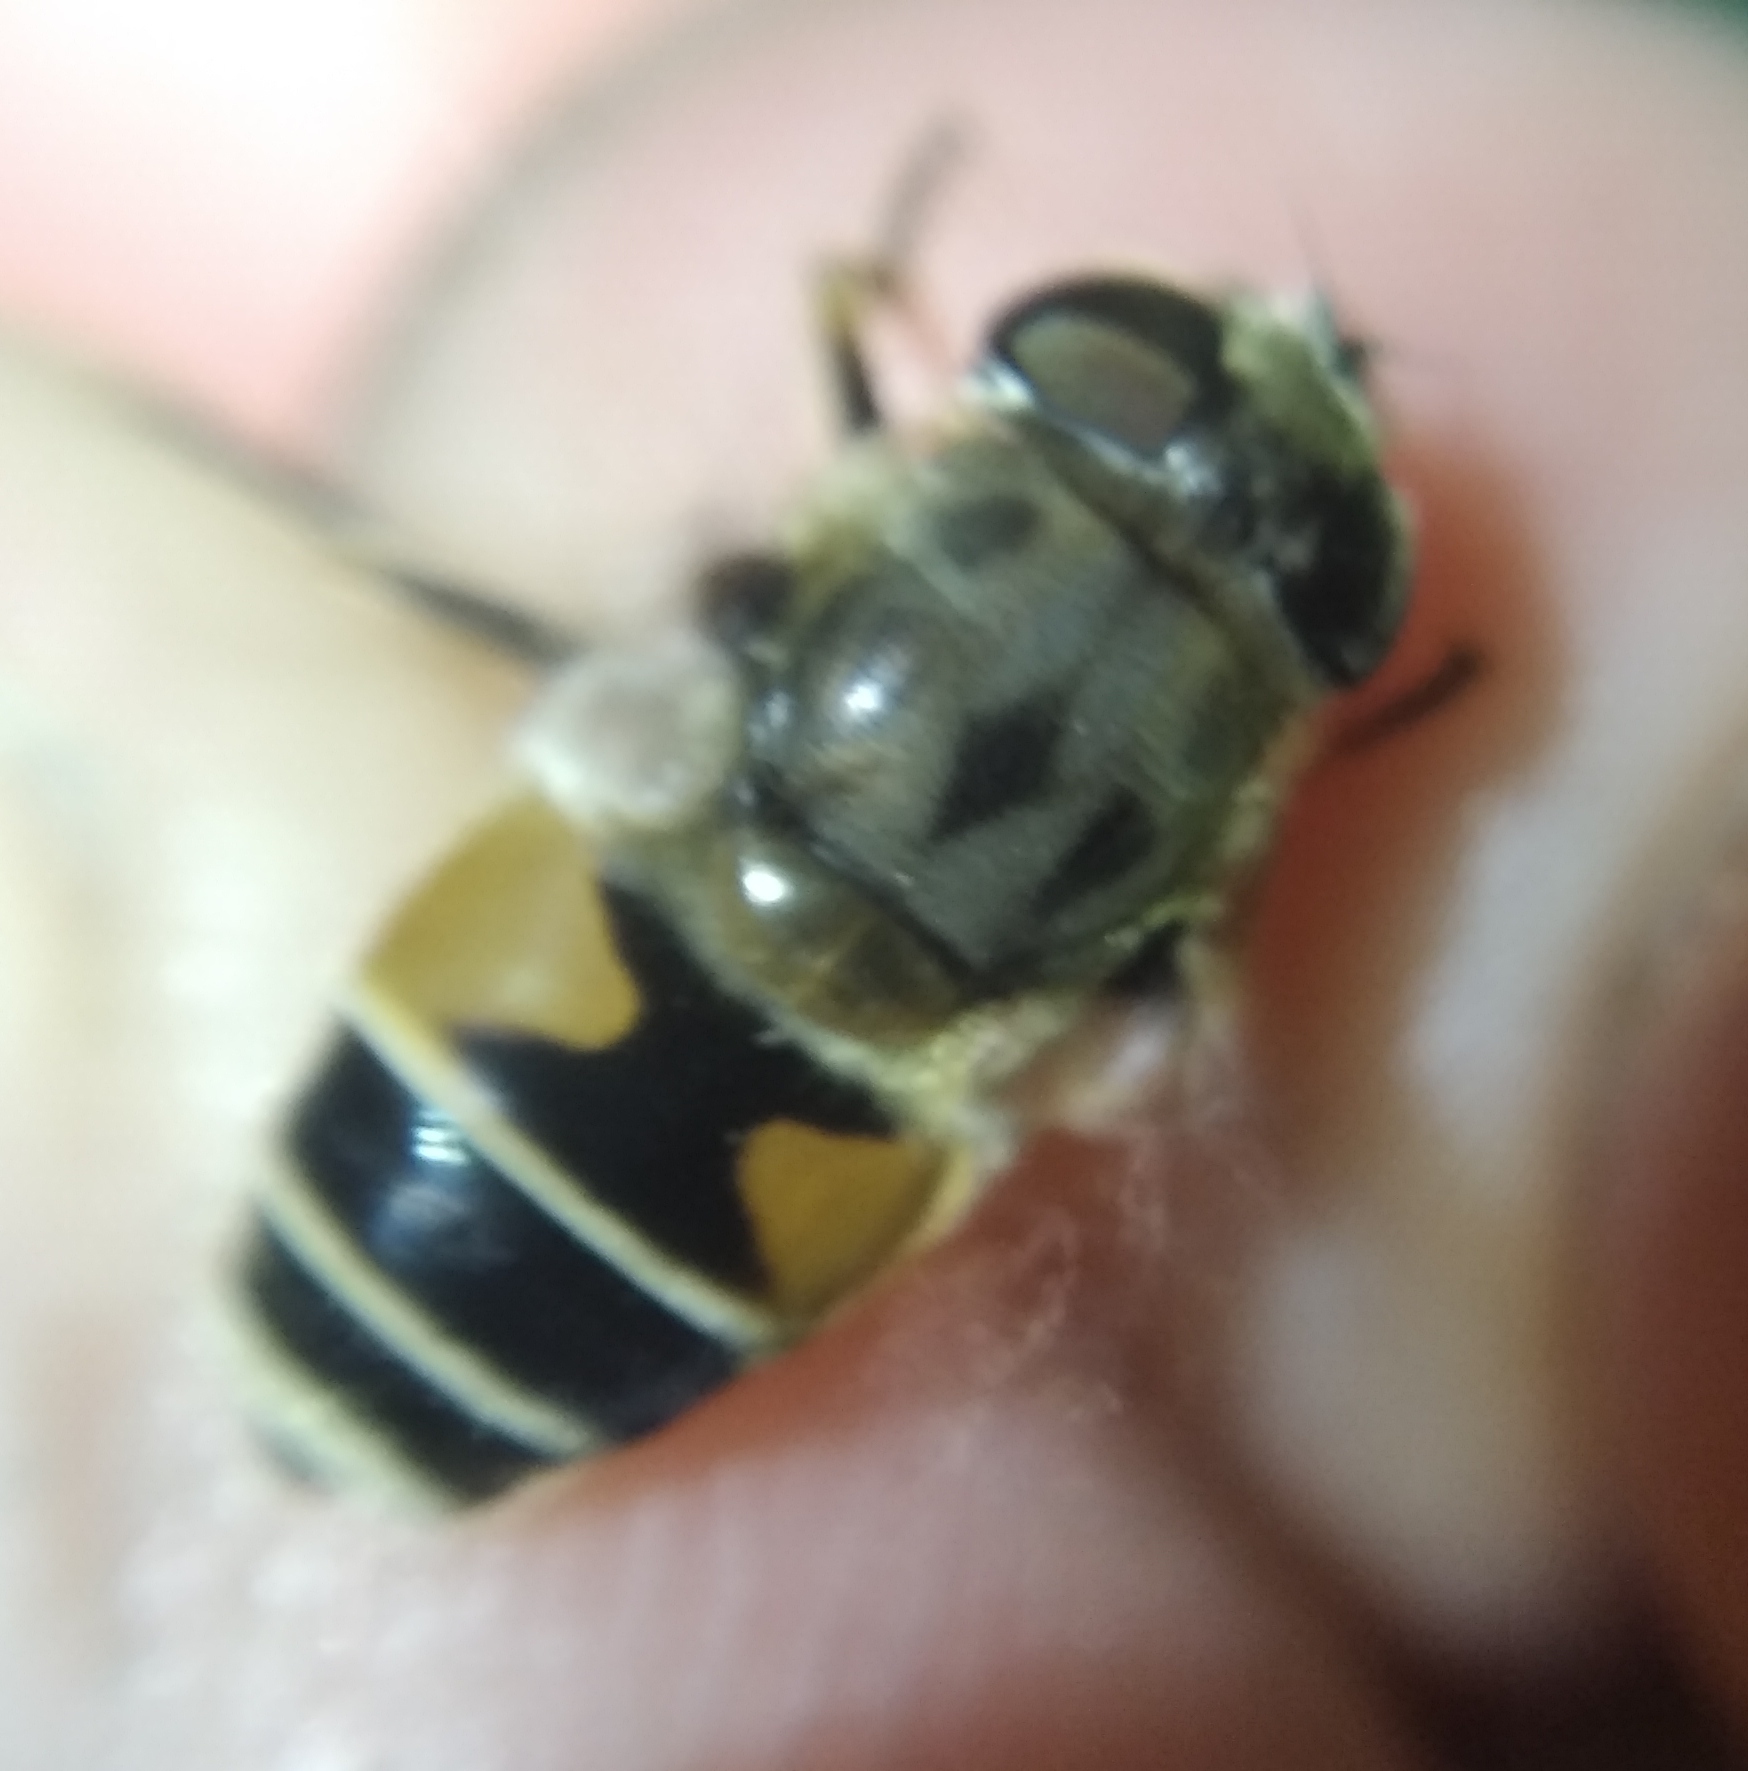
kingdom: Animalia
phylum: Arthropoda
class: Insecta
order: Diptera
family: Syrphidae
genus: Eristalis
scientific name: Eristalis arbustorum
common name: Hover fly
